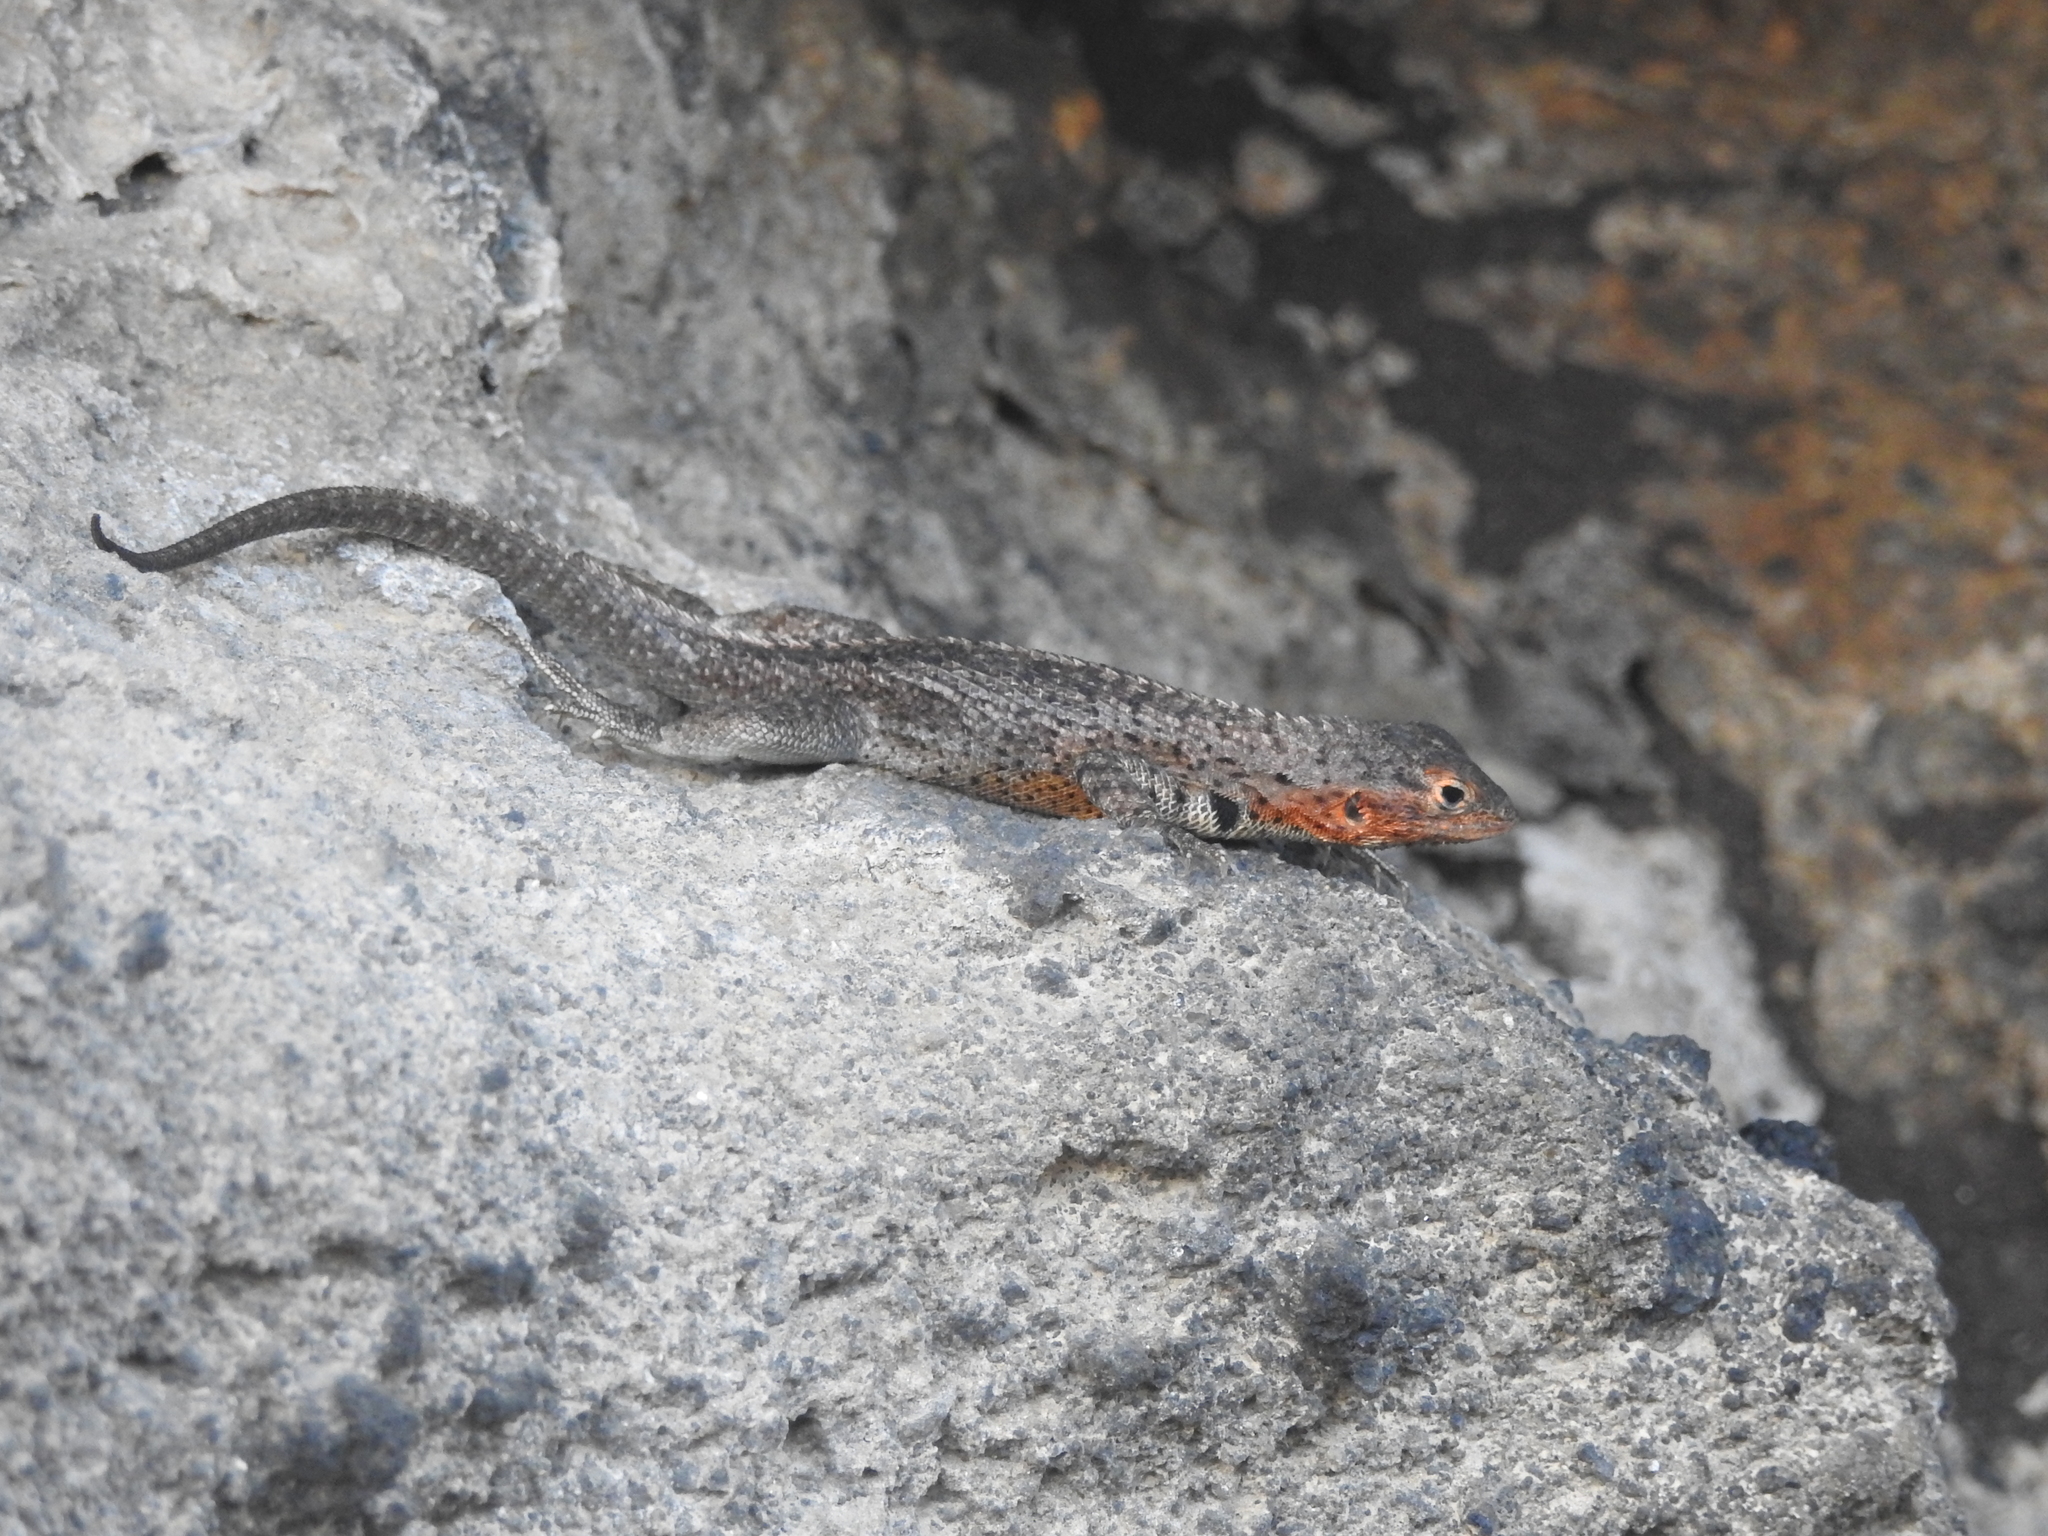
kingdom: Animalia
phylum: Chordata
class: Squamata
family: Tropiduridae
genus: Microlophus
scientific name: Microlophus albemarlensis
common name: Galapagos lava lizard
